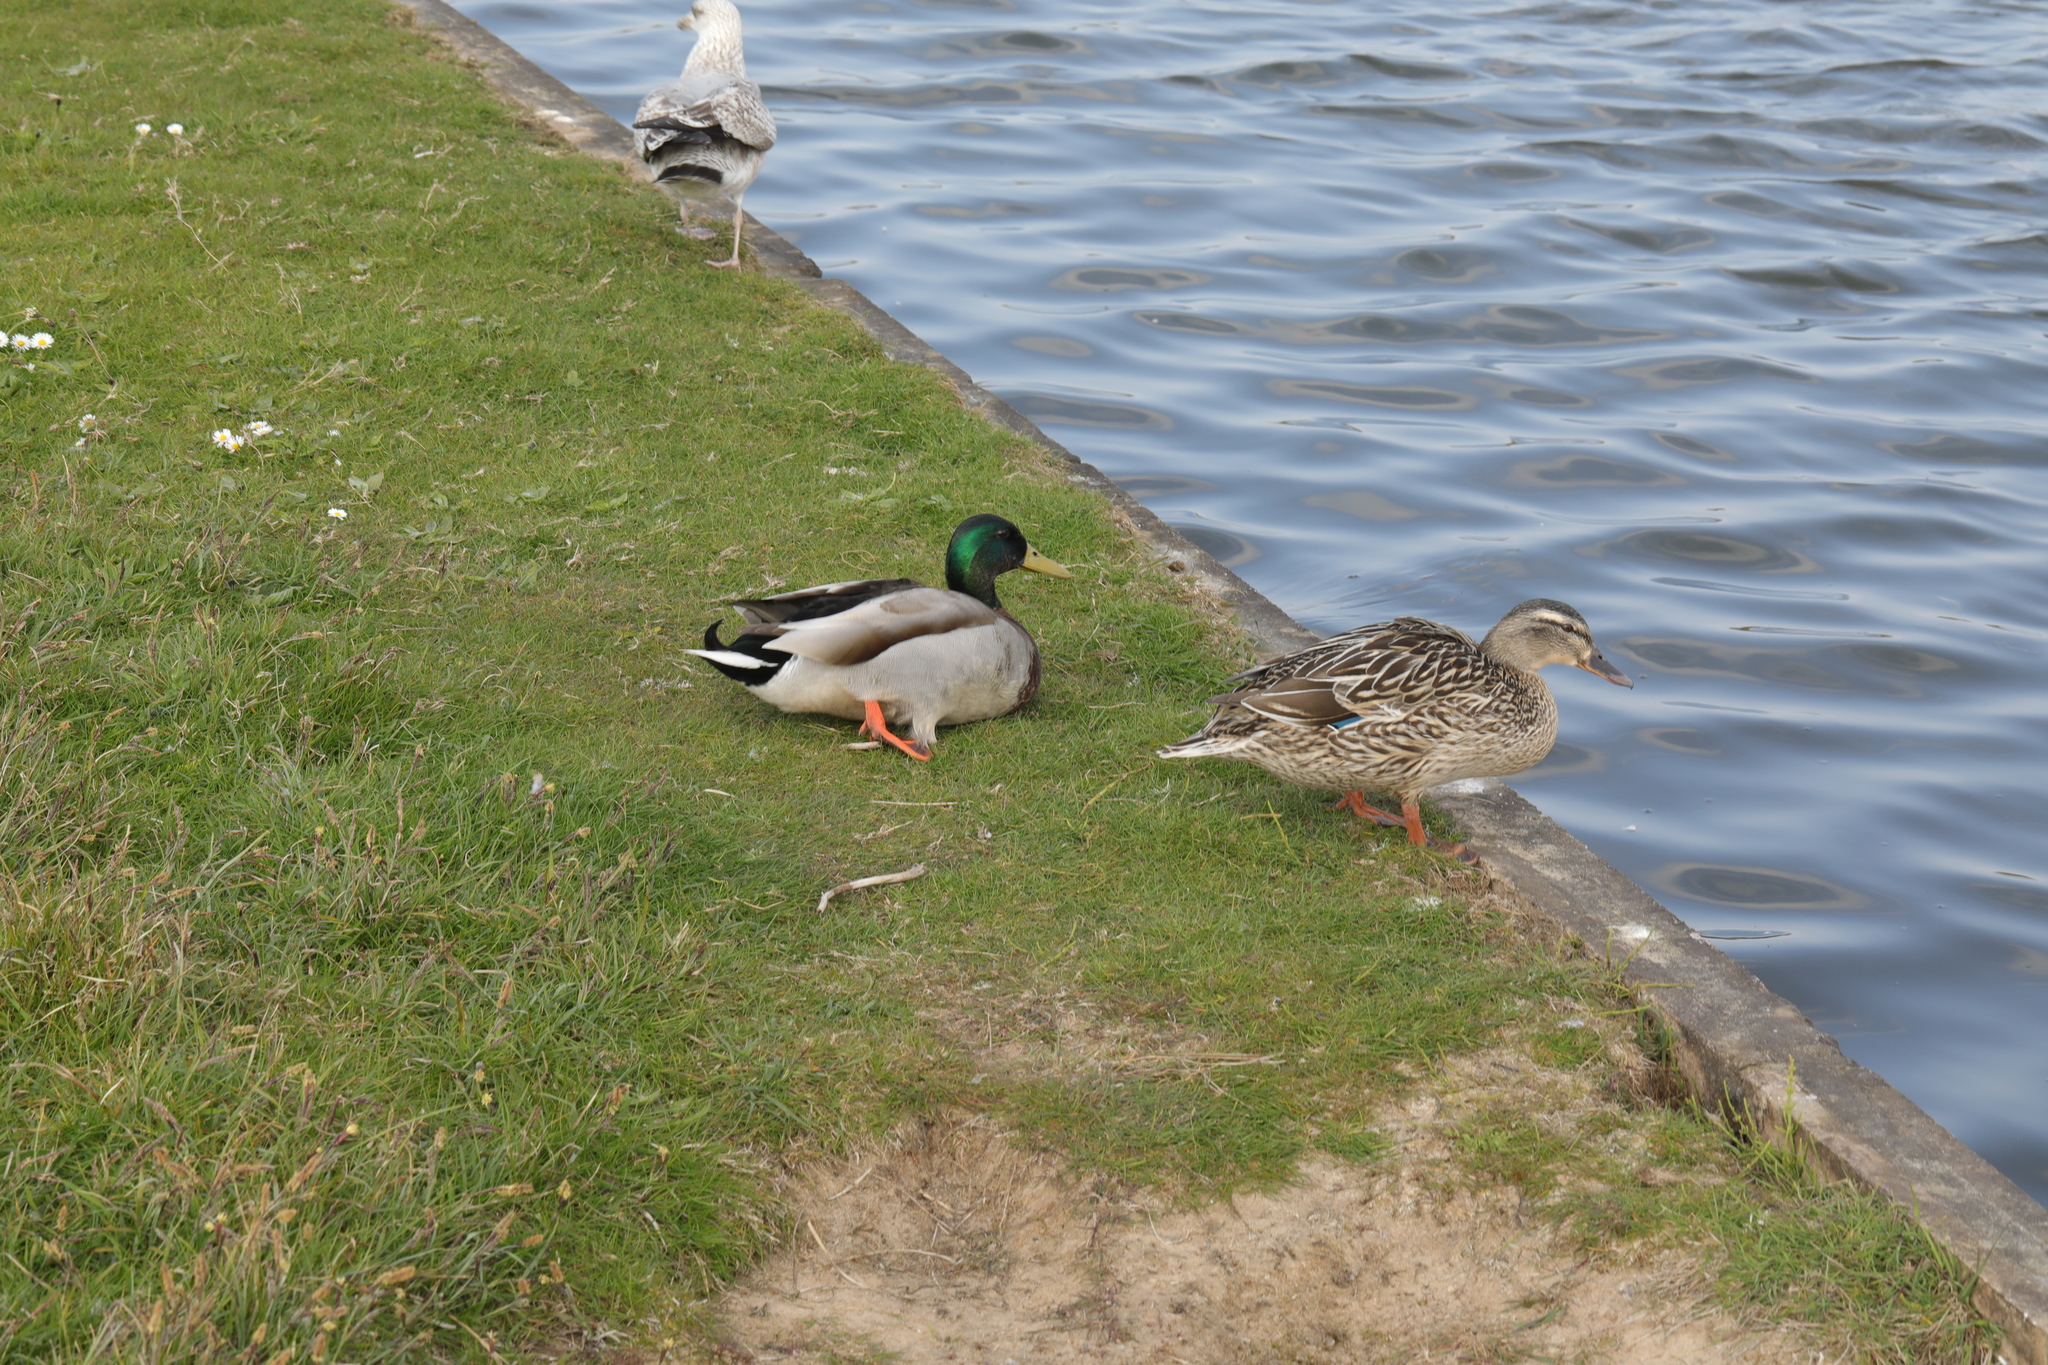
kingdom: Animalia
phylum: Chordata
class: Aves
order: Anseriformes
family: Anatidae
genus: Anas
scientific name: Anas platyrhynchos
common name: Mallard
